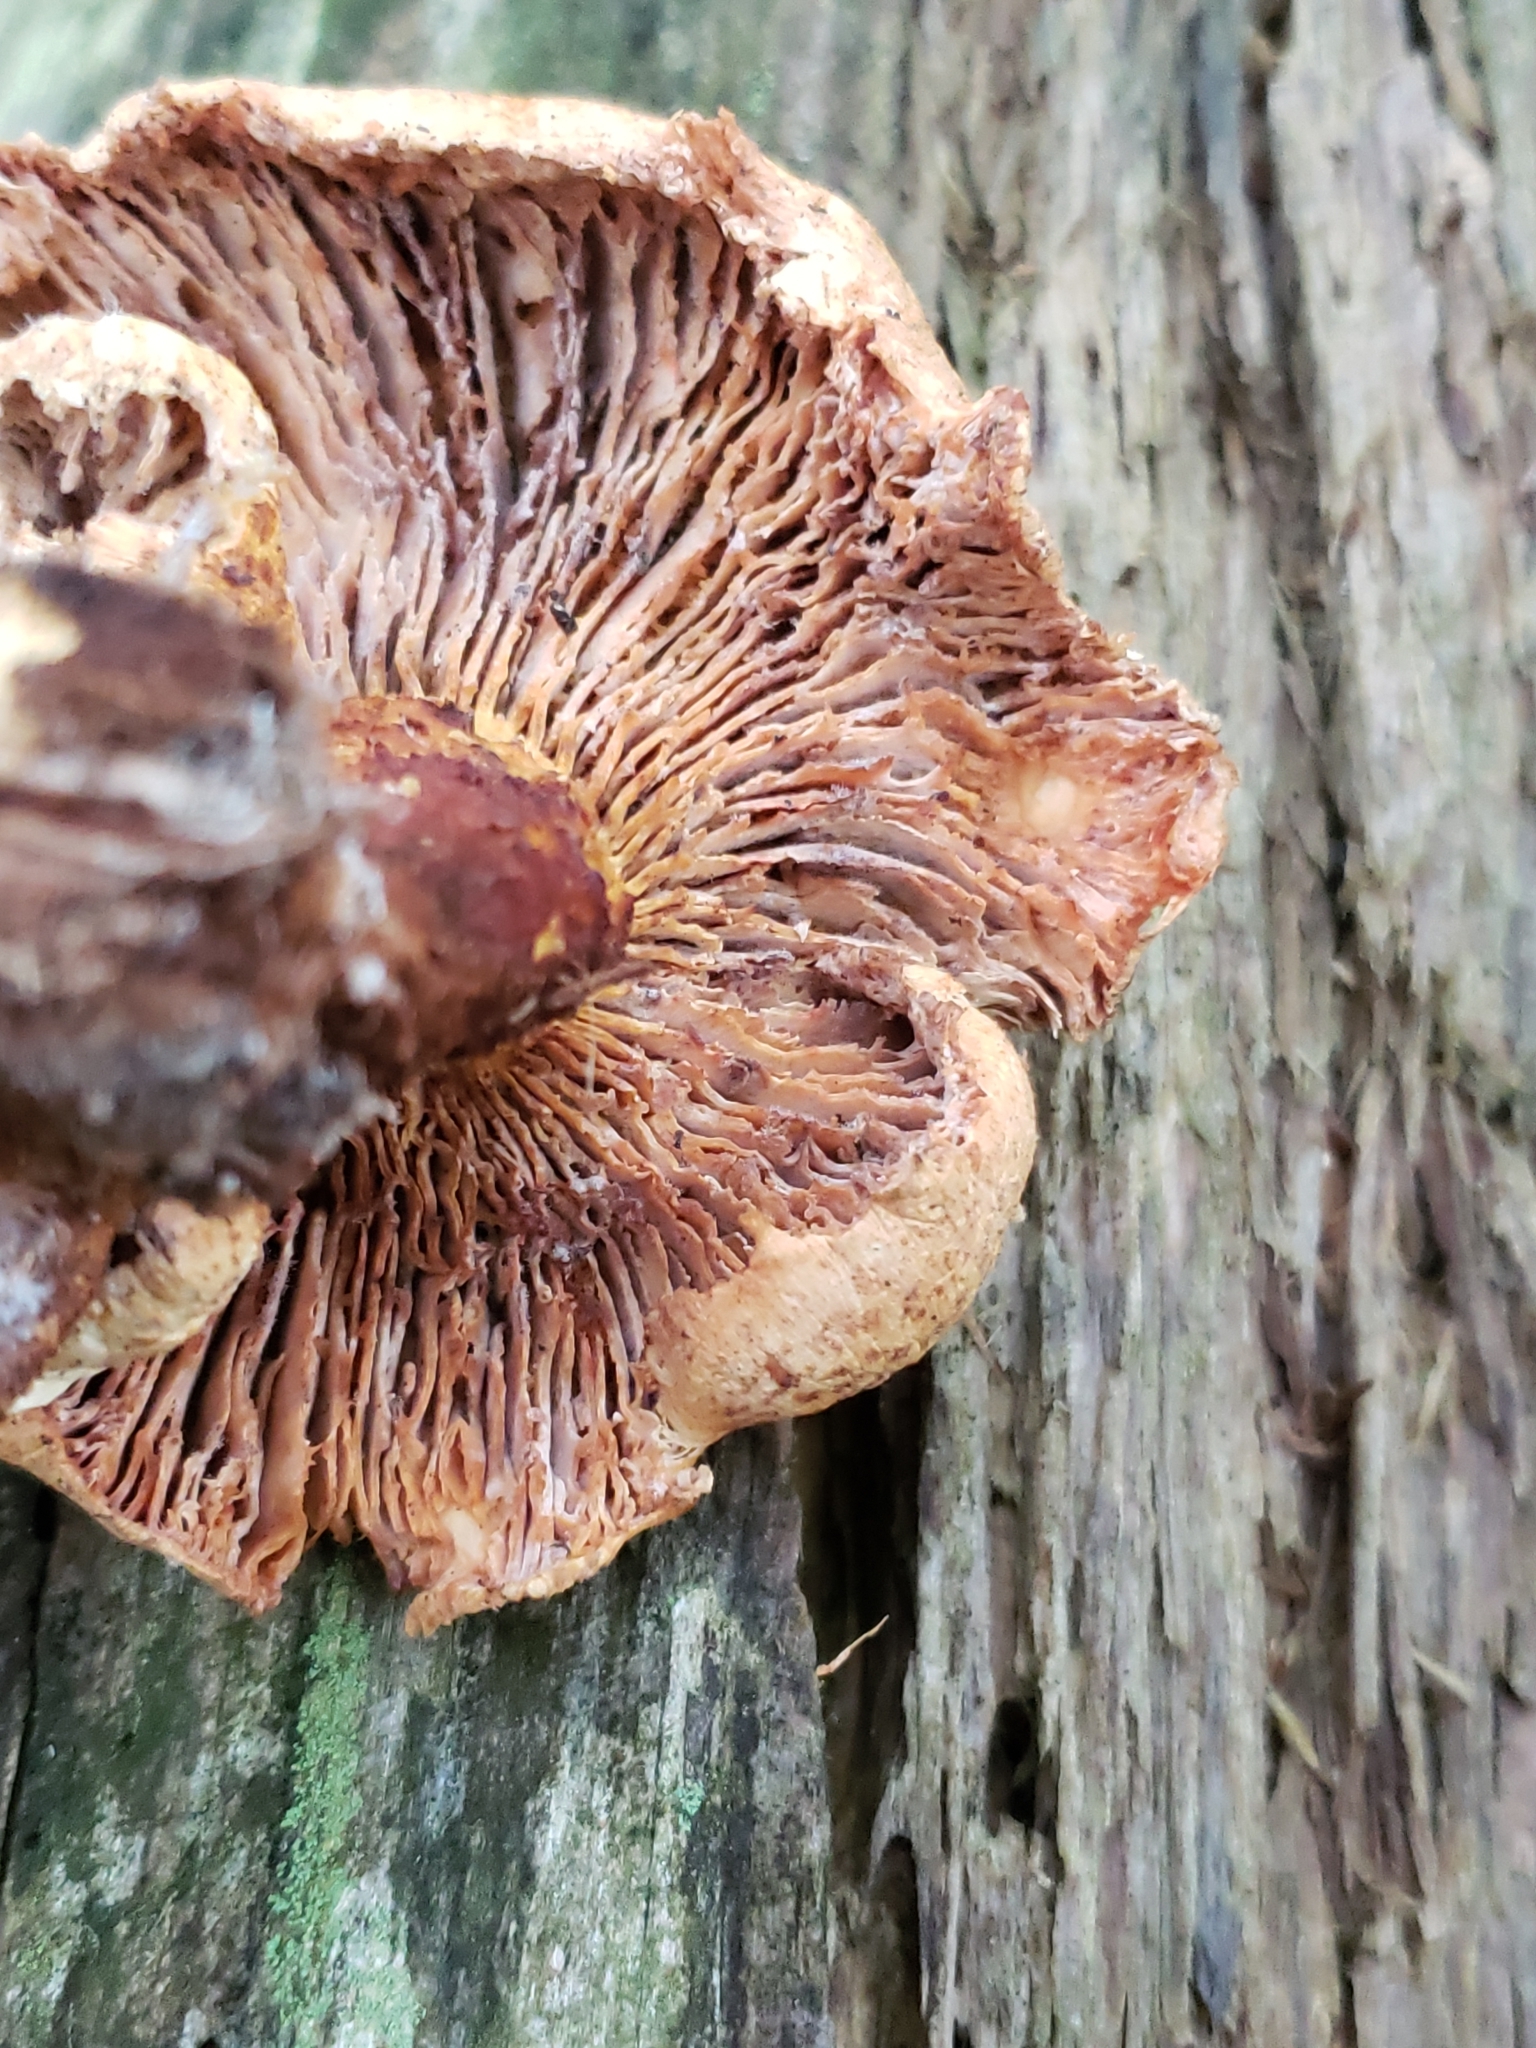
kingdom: Fungi
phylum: Basidiomycota
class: Agaricomycetes
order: Gloeophyllales
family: Gloeophyllaceae
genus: Neolentinus
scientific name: Neolentinus lepideus
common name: Scaly sawgill
